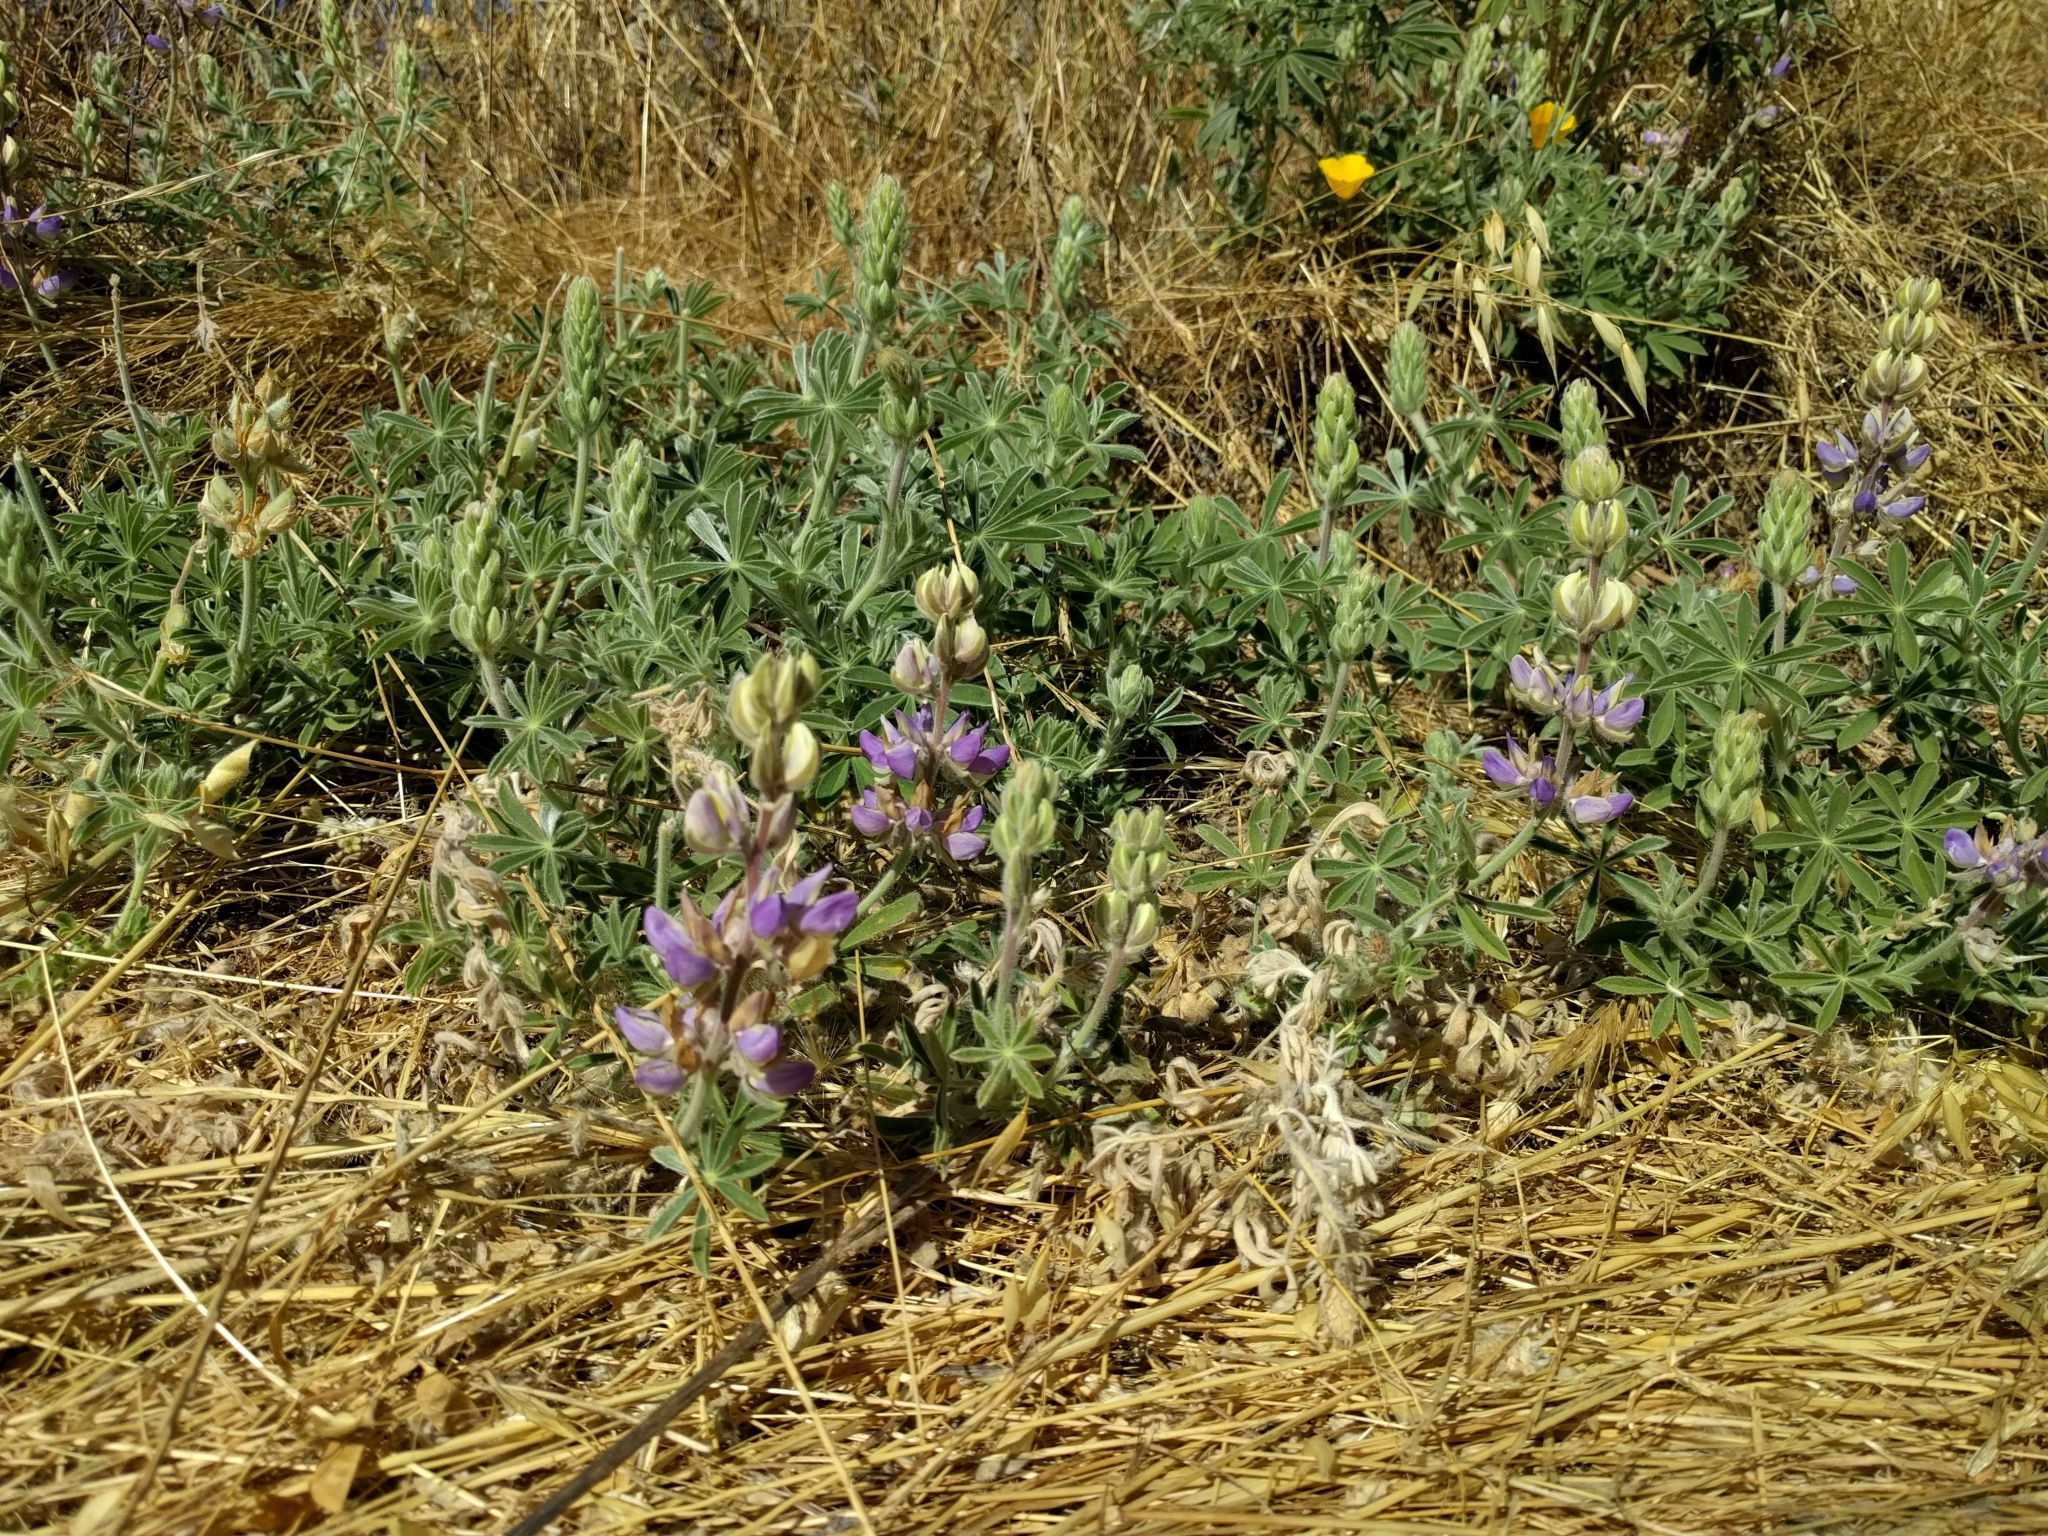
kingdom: Plantae
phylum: Tracheophyta
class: Magnoliopsida
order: Fabales
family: Fabaceae
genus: Lupinus
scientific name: Lupinus formosus
